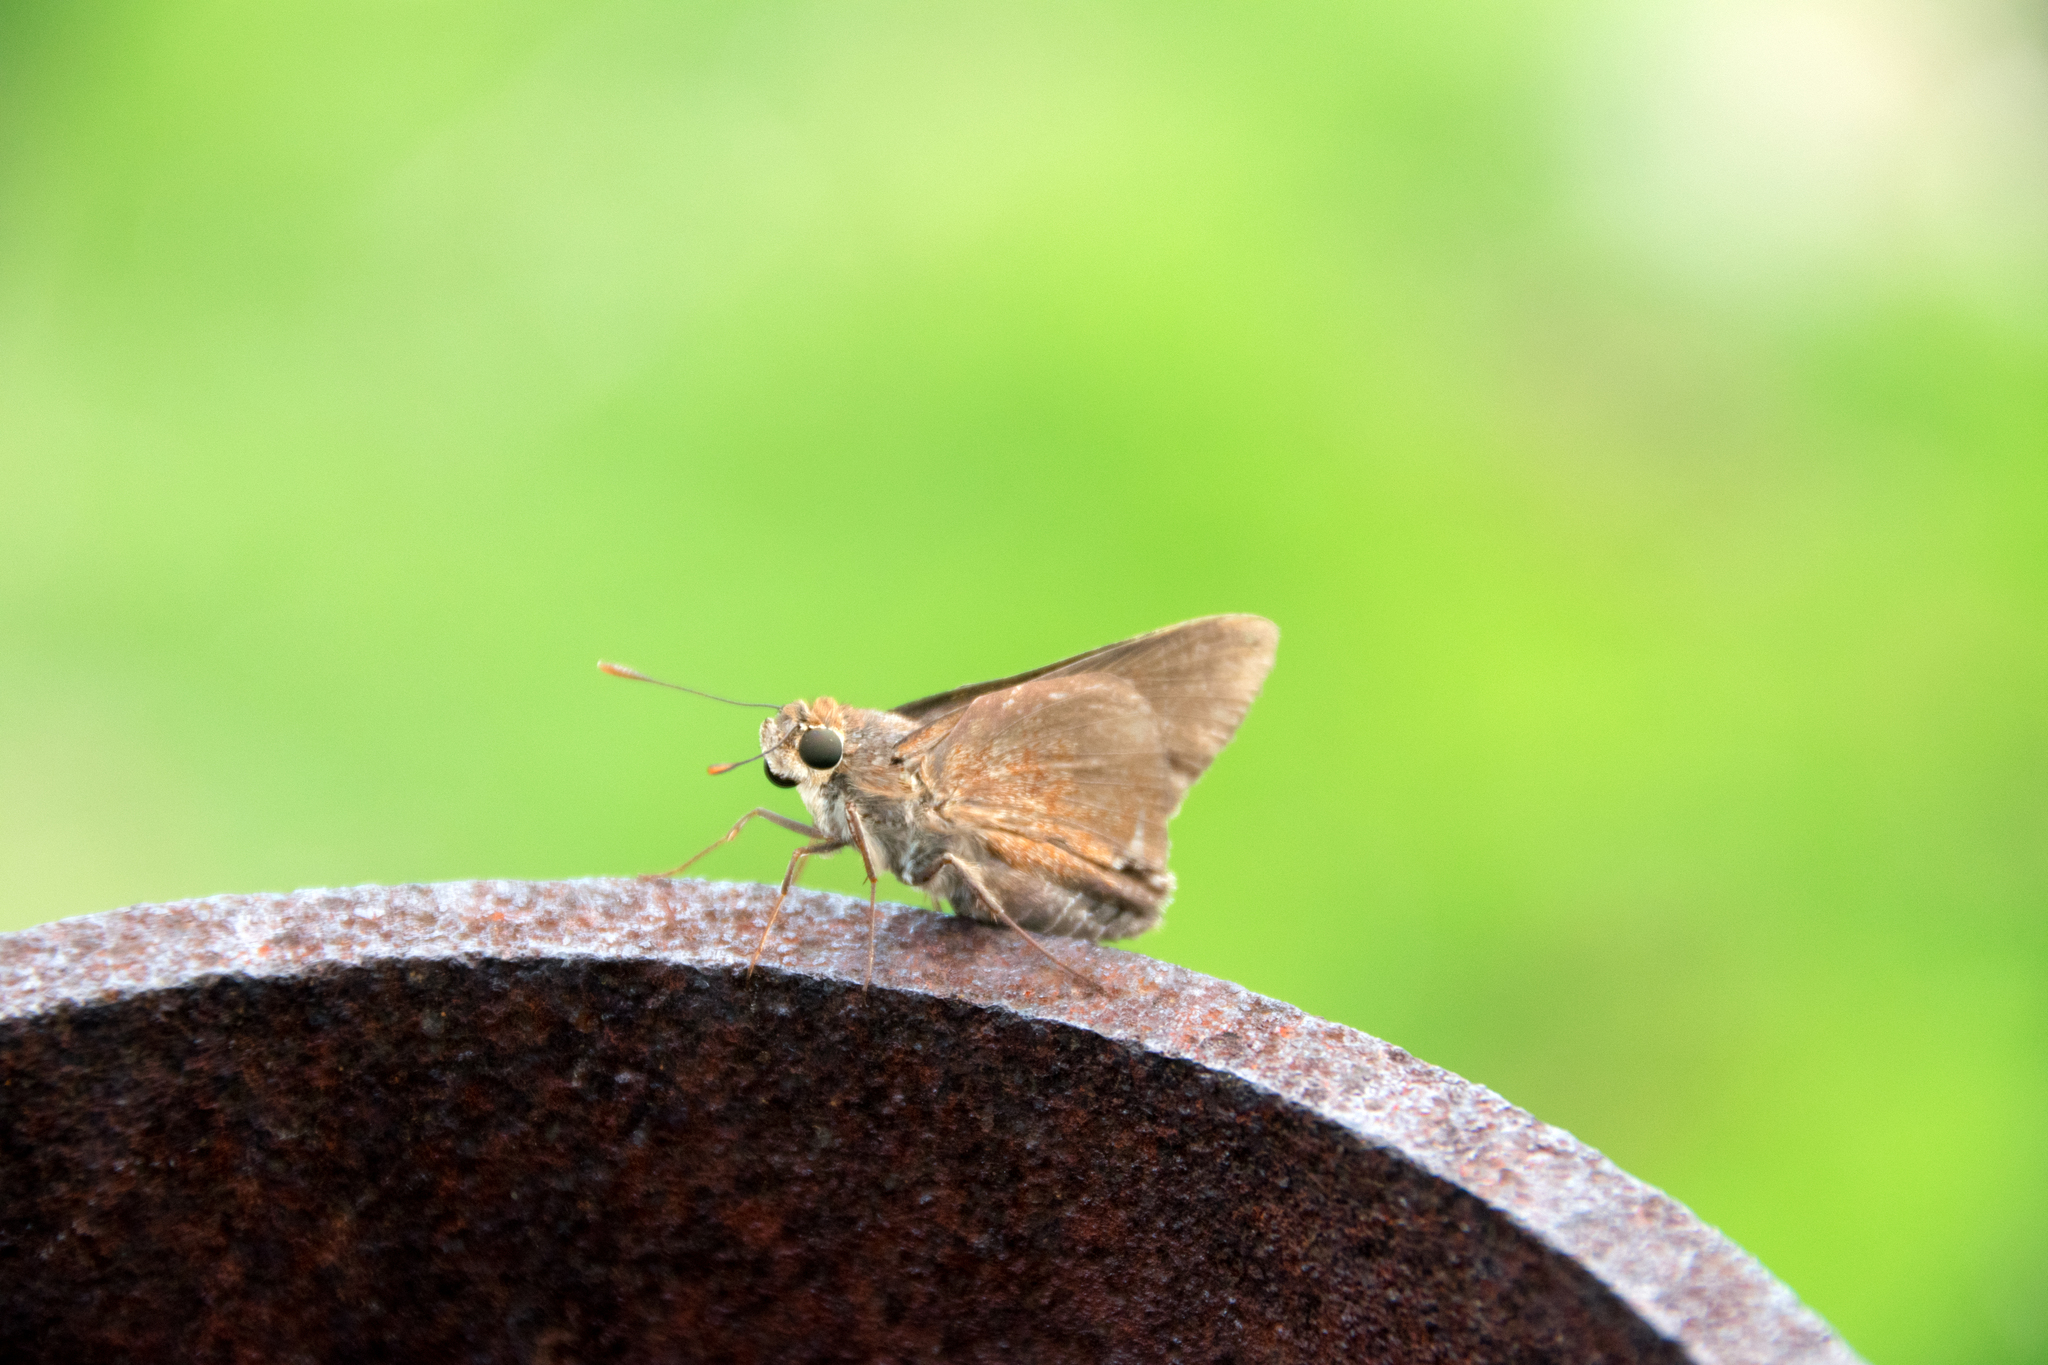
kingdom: Animalia
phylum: Arthropoda
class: Insecta
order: Lepidoptera
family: Hesperiidae
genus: Asbolis
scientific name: Asbolis capucinus
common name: Monk skipper
